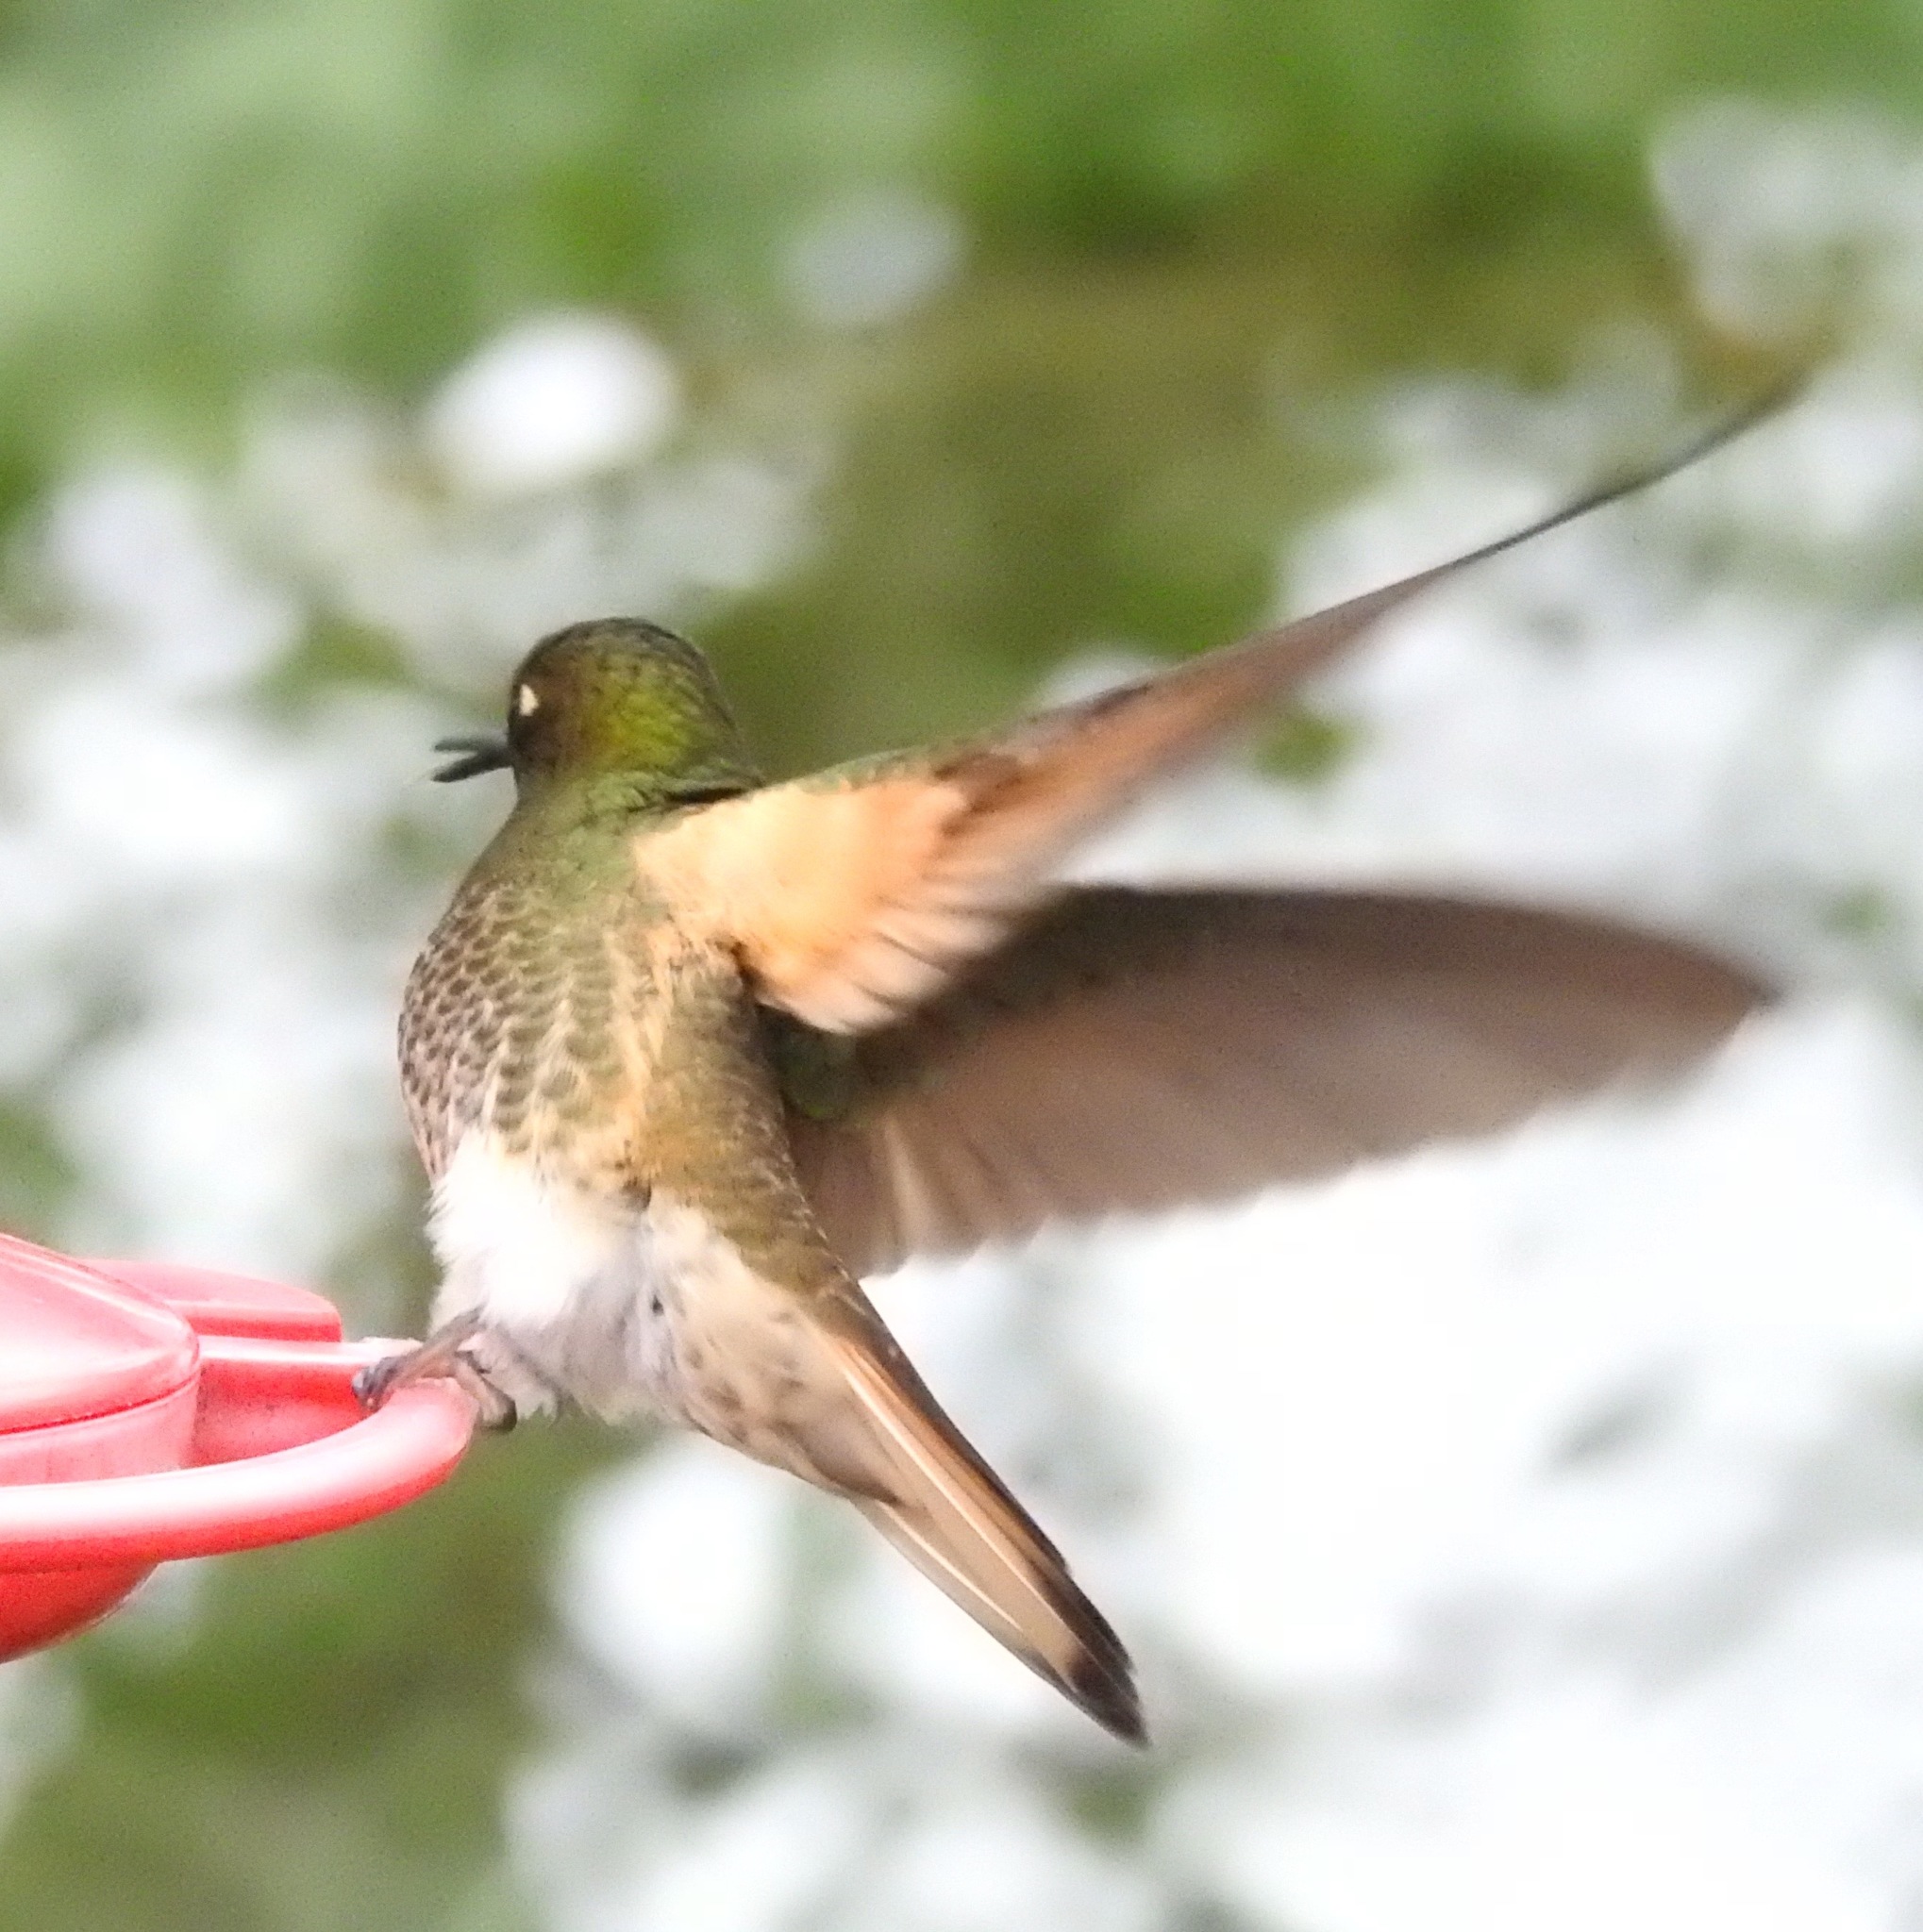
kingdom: Animalia
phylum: Chordata
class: Aves
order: Apodiformes
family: Trochilidae
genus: Boissonneaua
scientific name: Boissonneaua flavescens
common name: Buff-tailed coronet
